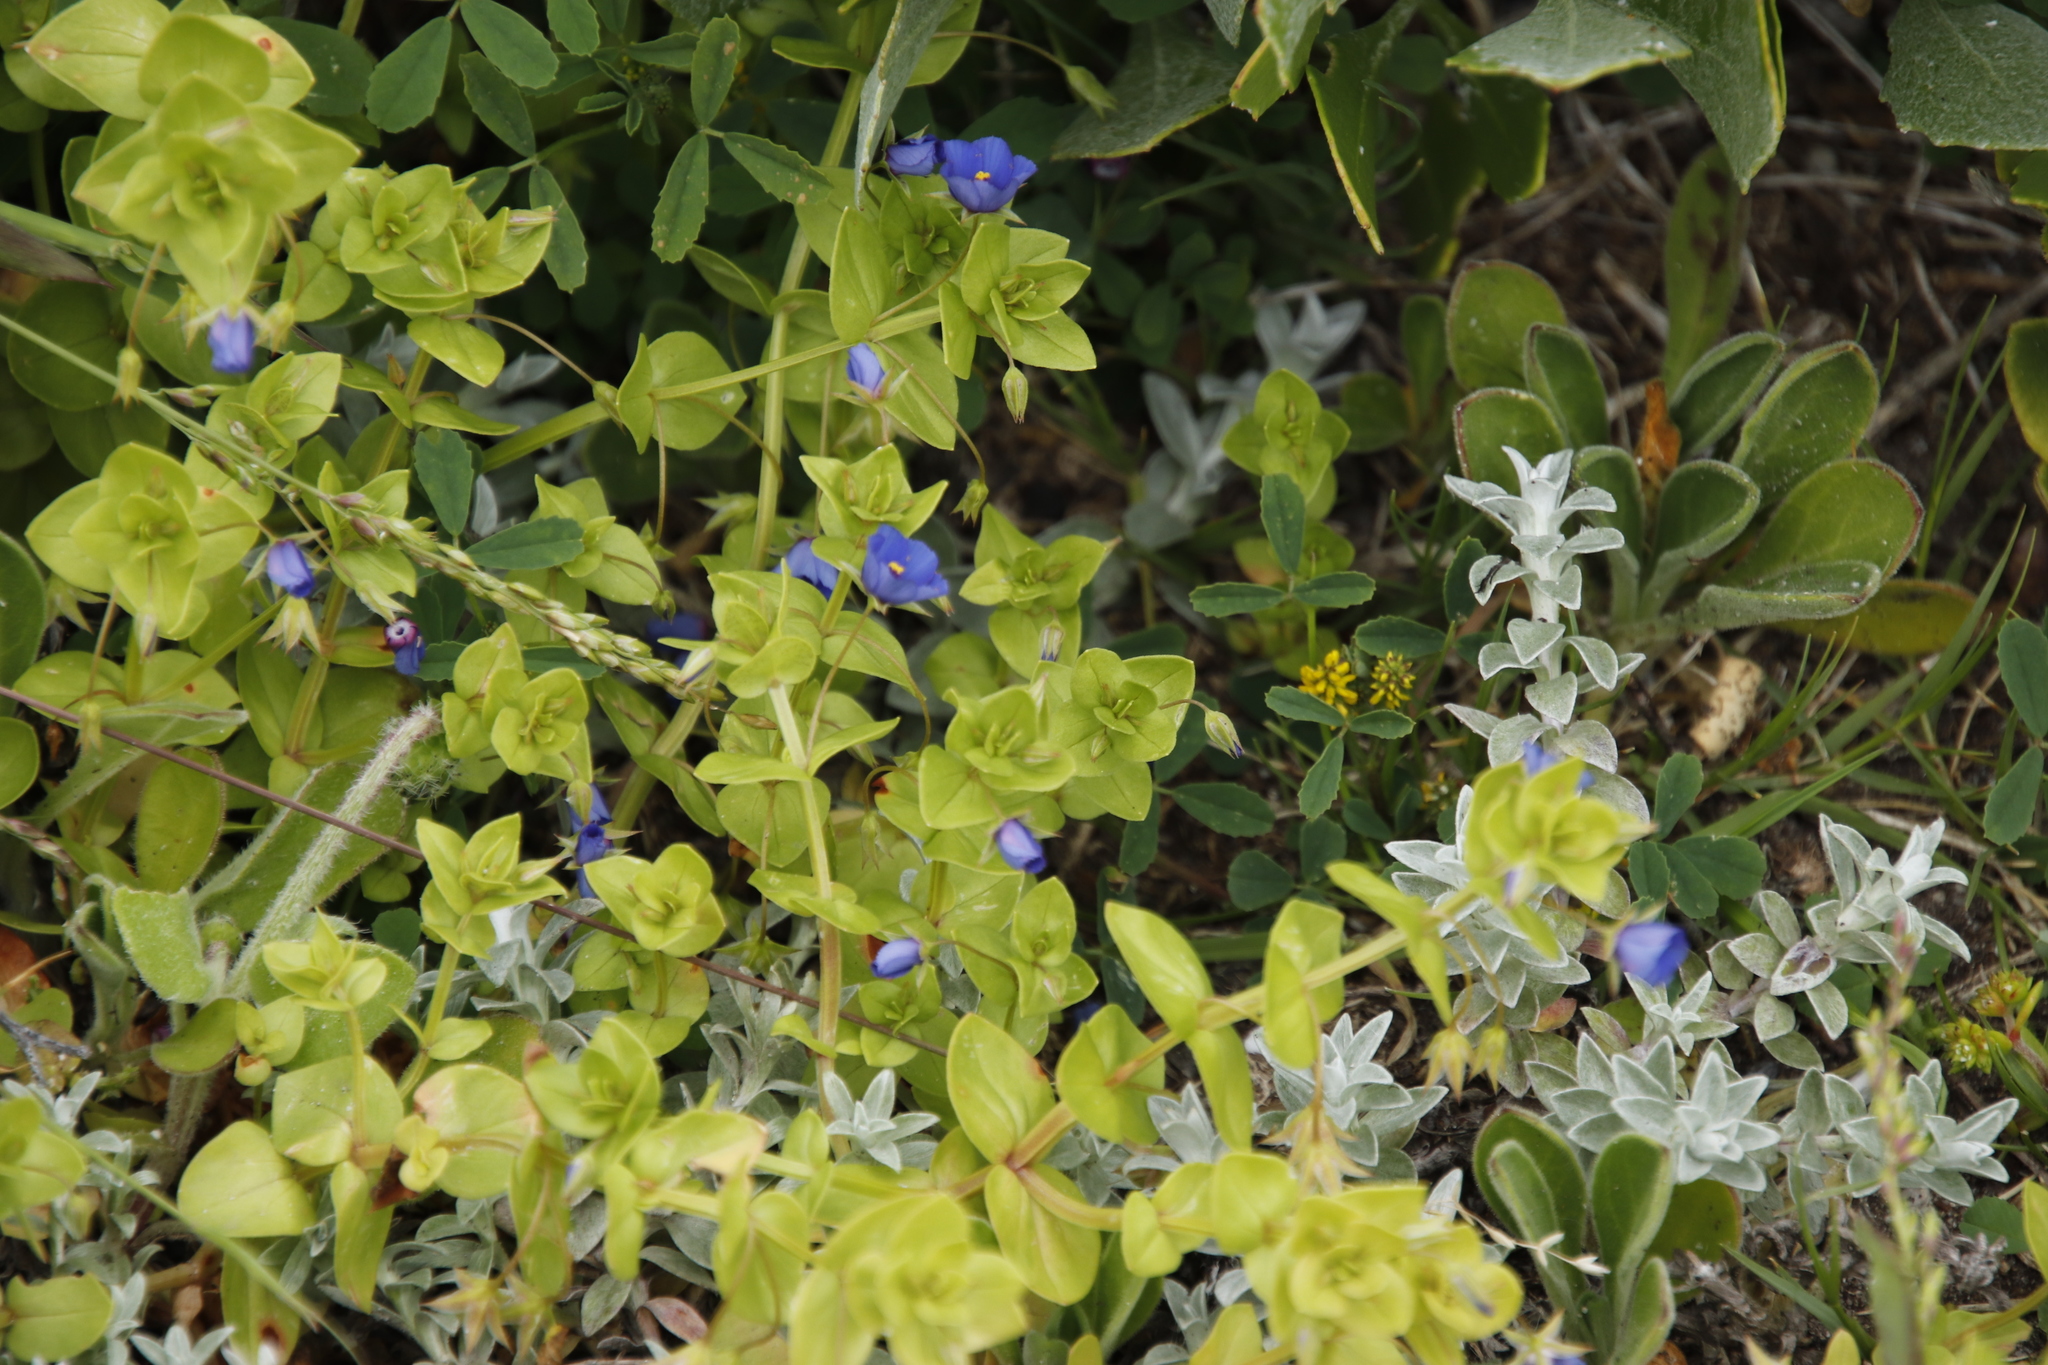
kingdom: Plantae
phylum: Tracheophyta
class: Magnoliopsida
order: Ericales
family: Primulaceae
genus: Lysimachia
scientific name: Lysimachia loeflingii
